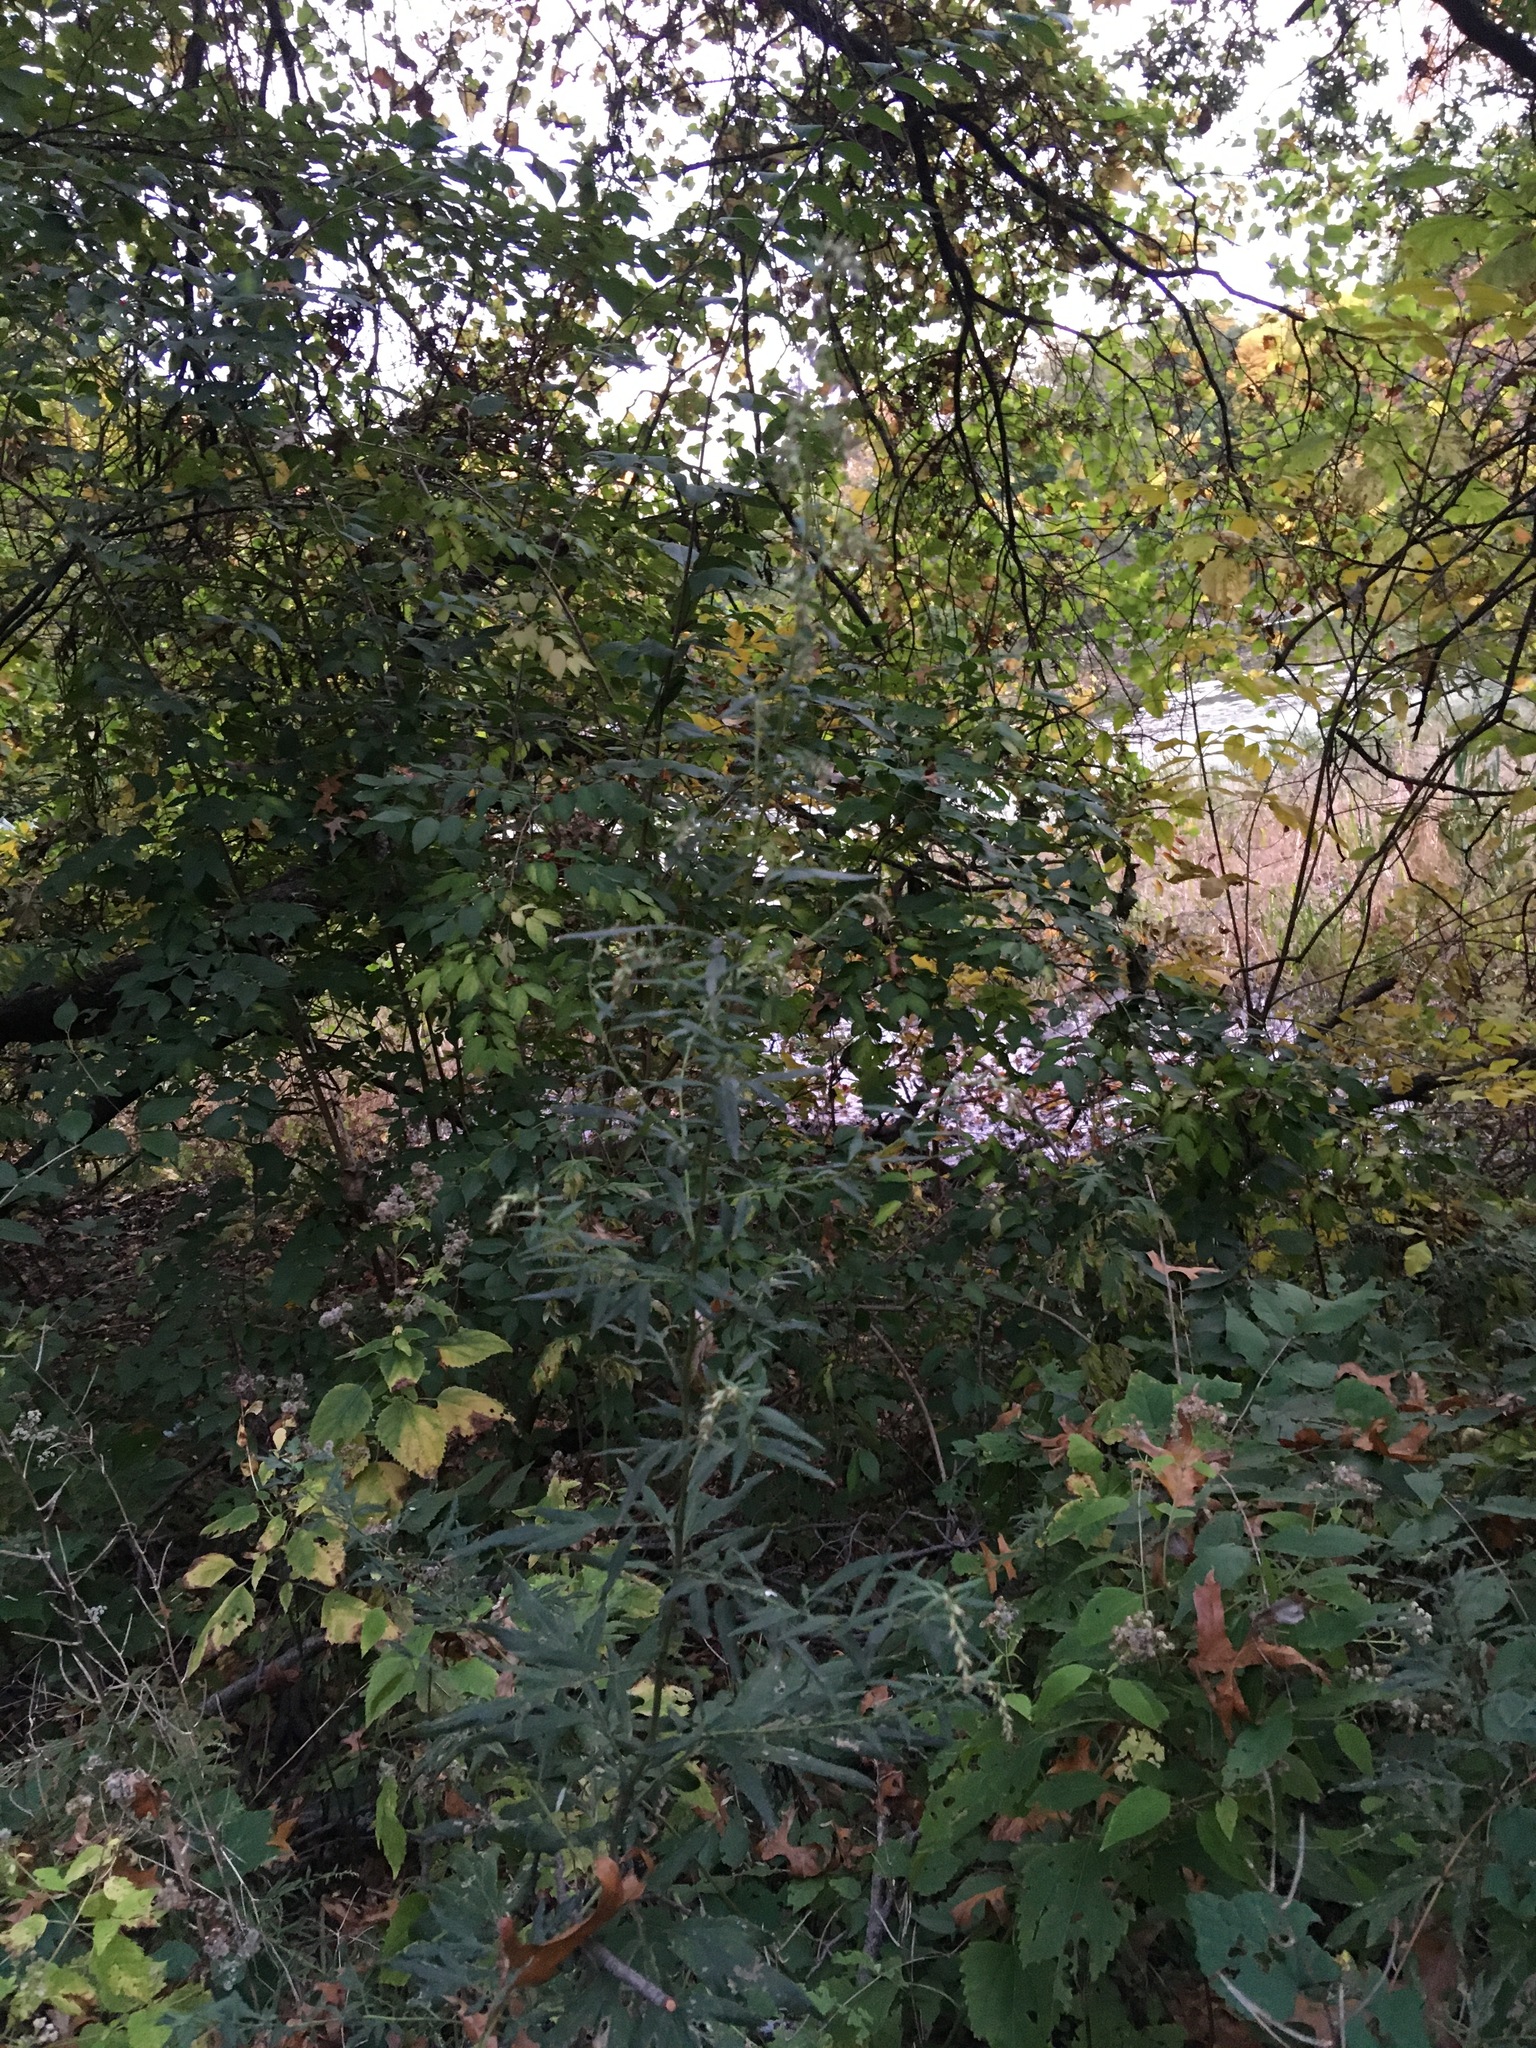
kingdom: Plantae
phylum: Tracheophyta
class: Magnoliopsida
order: Asterales
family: Asteraceae
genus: Artemisia
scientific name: Artemisia vulgaris
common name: Mugwort
